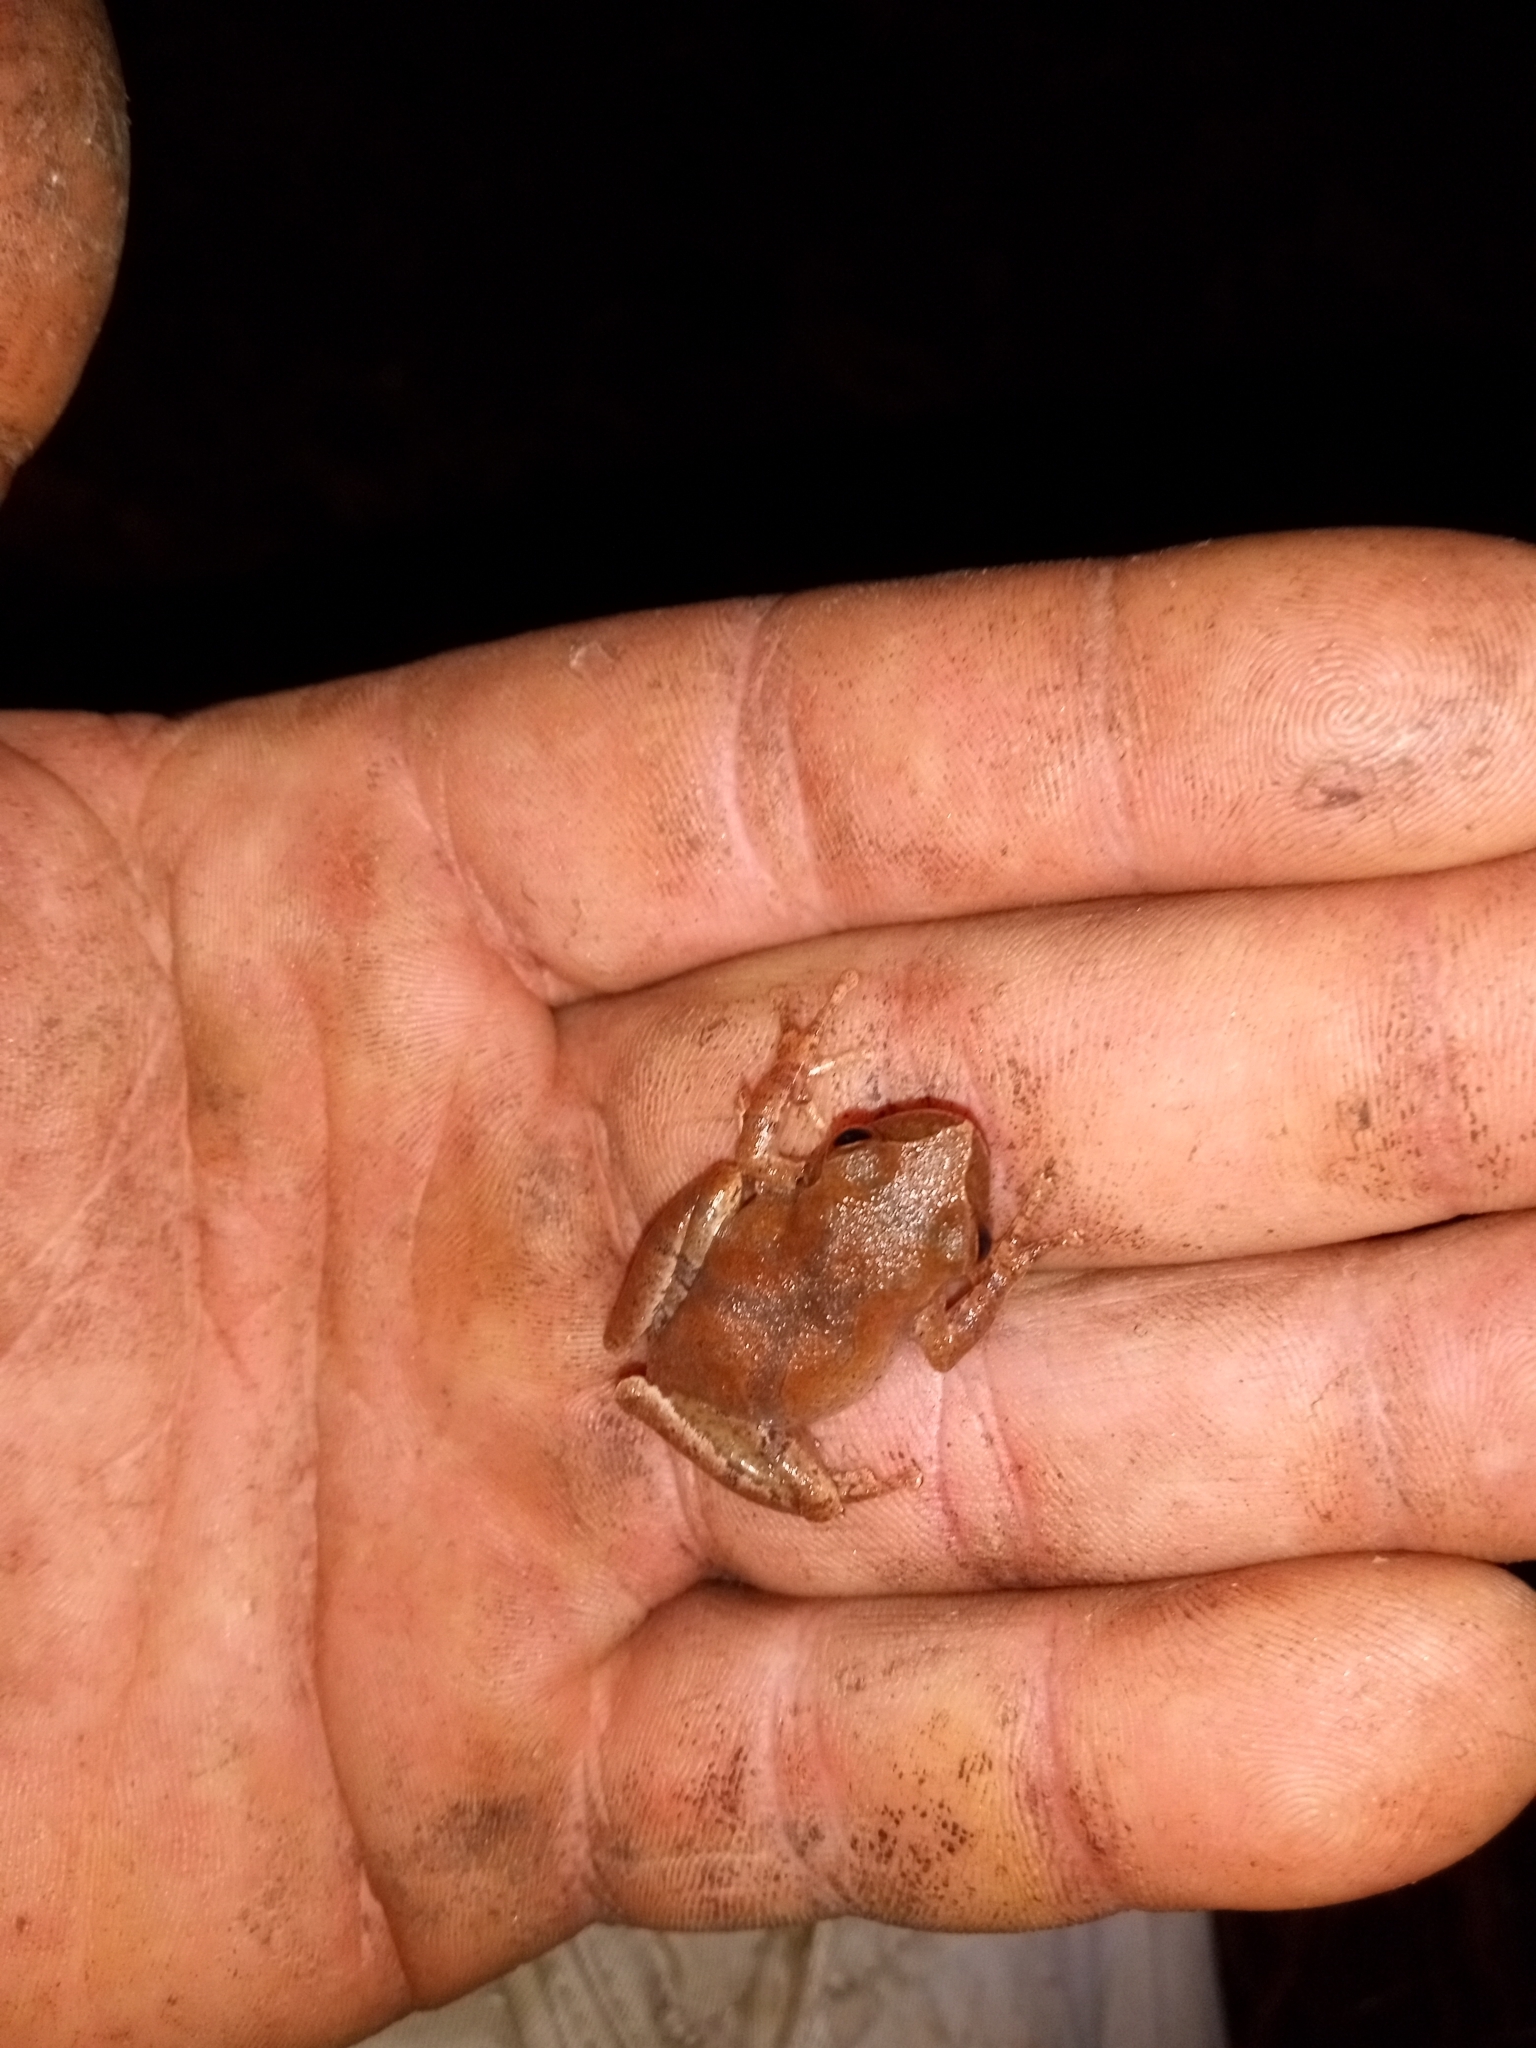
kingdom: Animalia
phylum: Chordata
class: Amphibia
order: Anura
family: Hylidae
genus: Pseudacris
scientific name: Pseudacris crucifer
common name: Spring peeper
